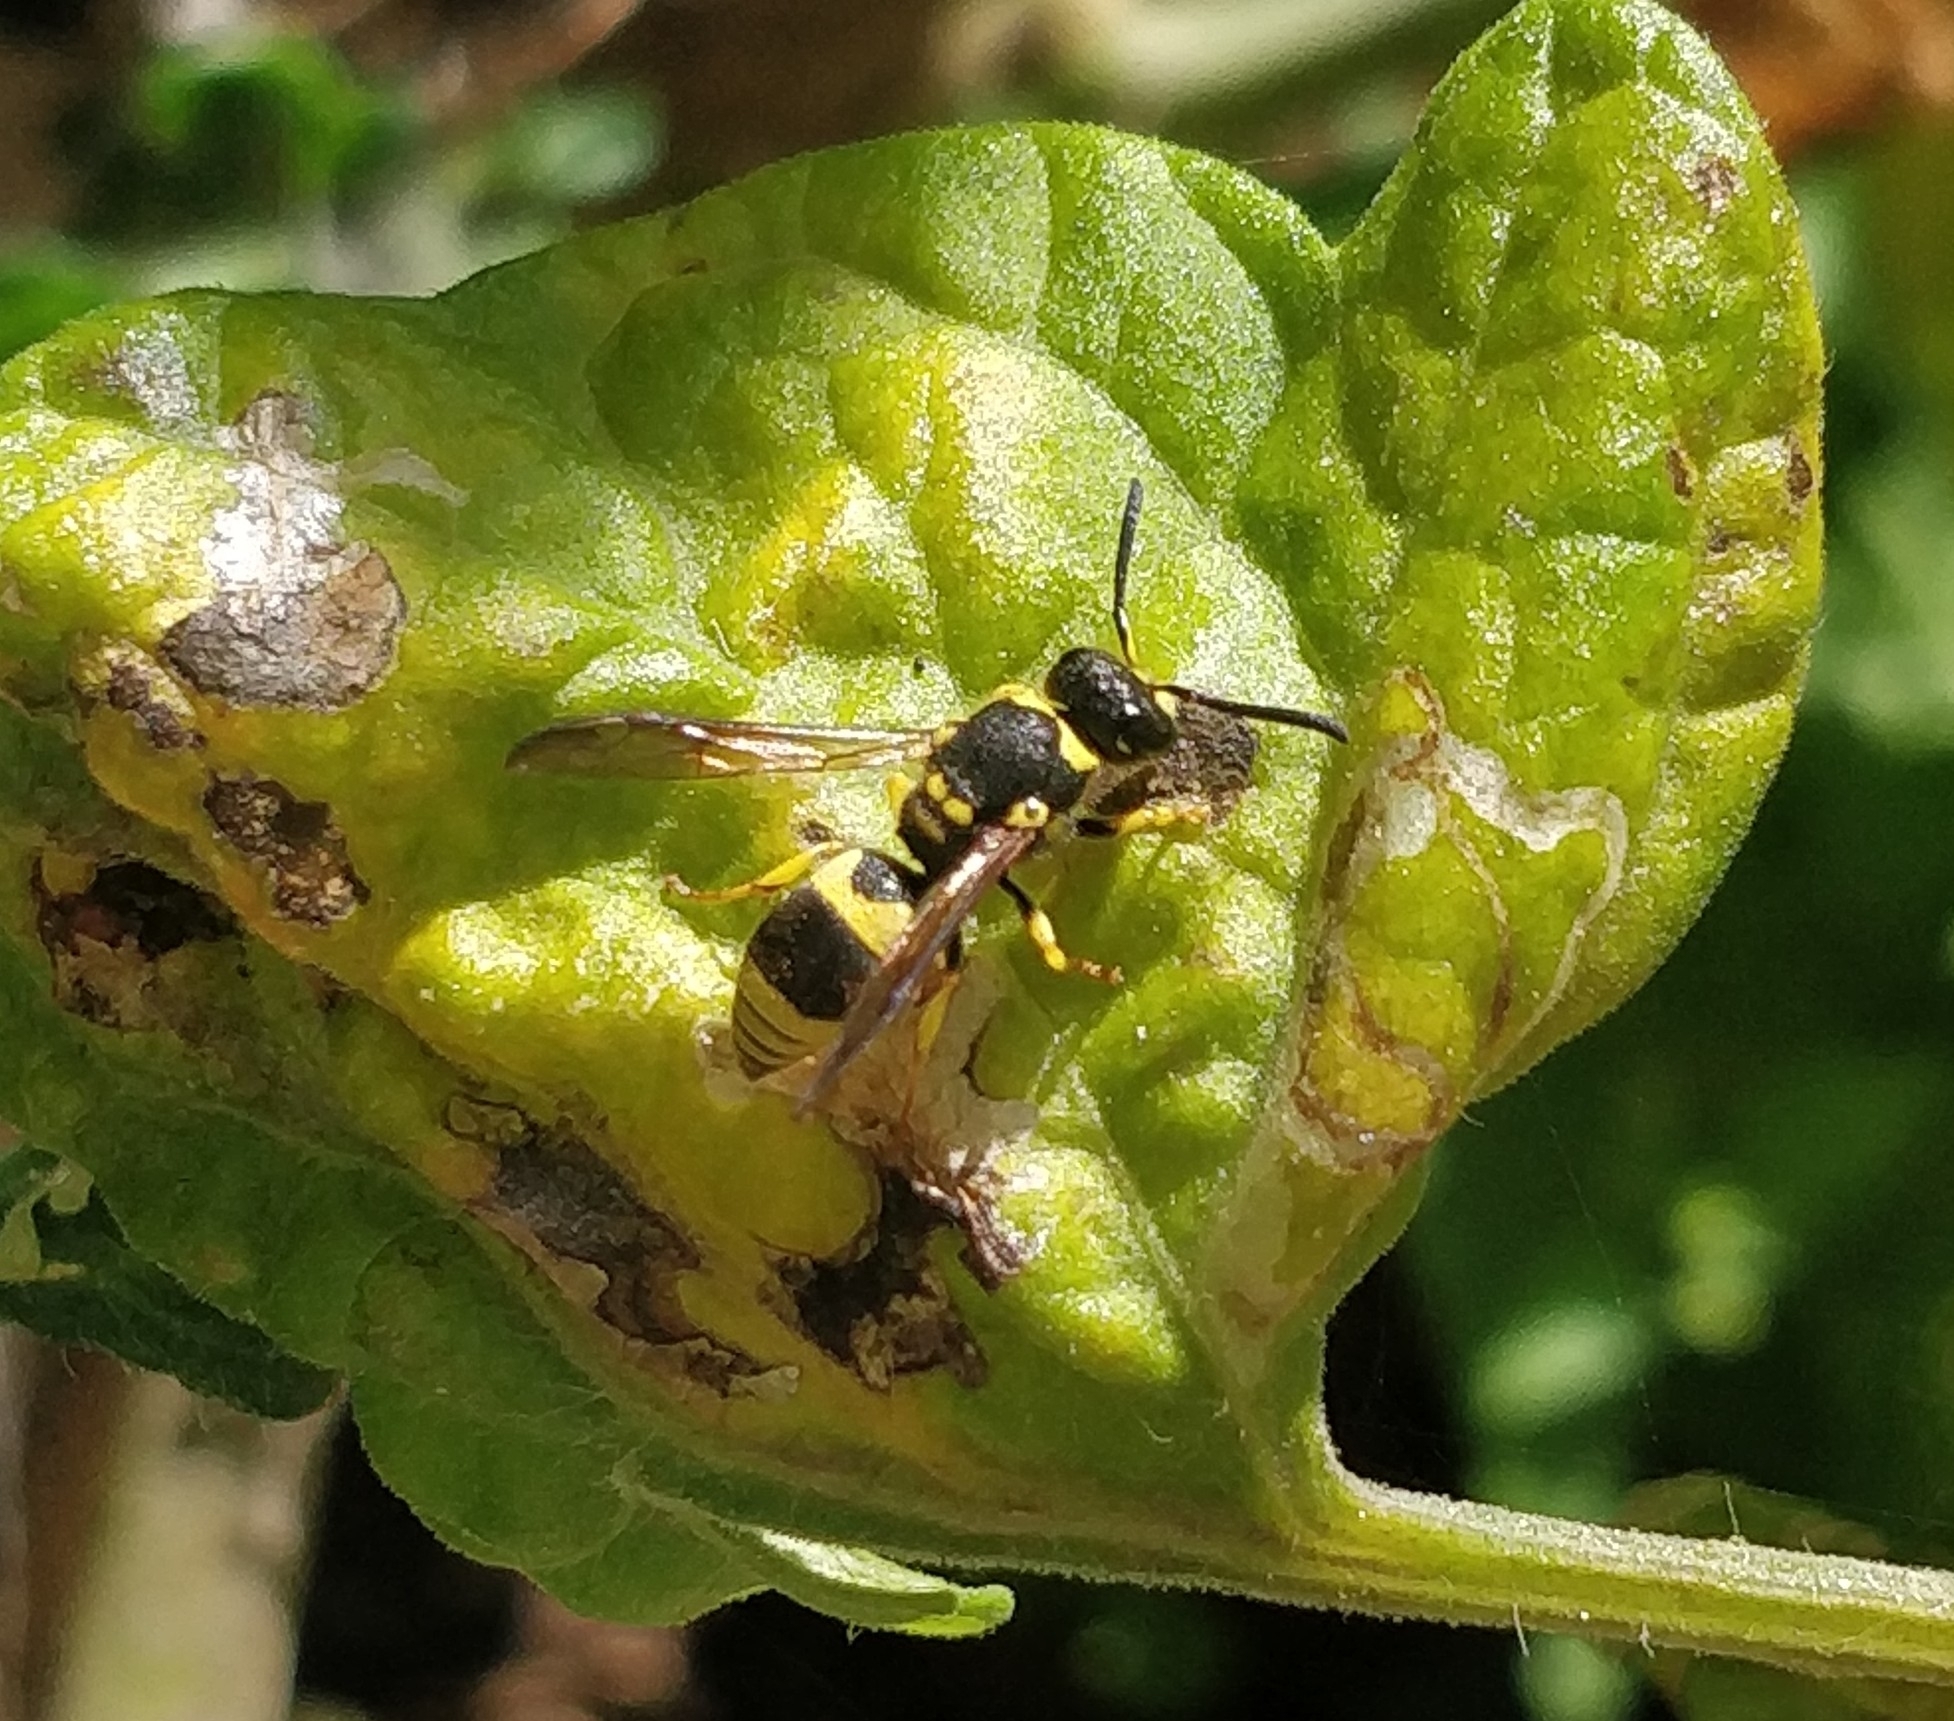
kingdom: Animalia
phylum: Arthropoda
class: Insecta
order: Hymenoptera
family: Vespidae
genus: Ancistrocerus
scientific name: Ancistrocerus gazella
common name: European tube wasp
